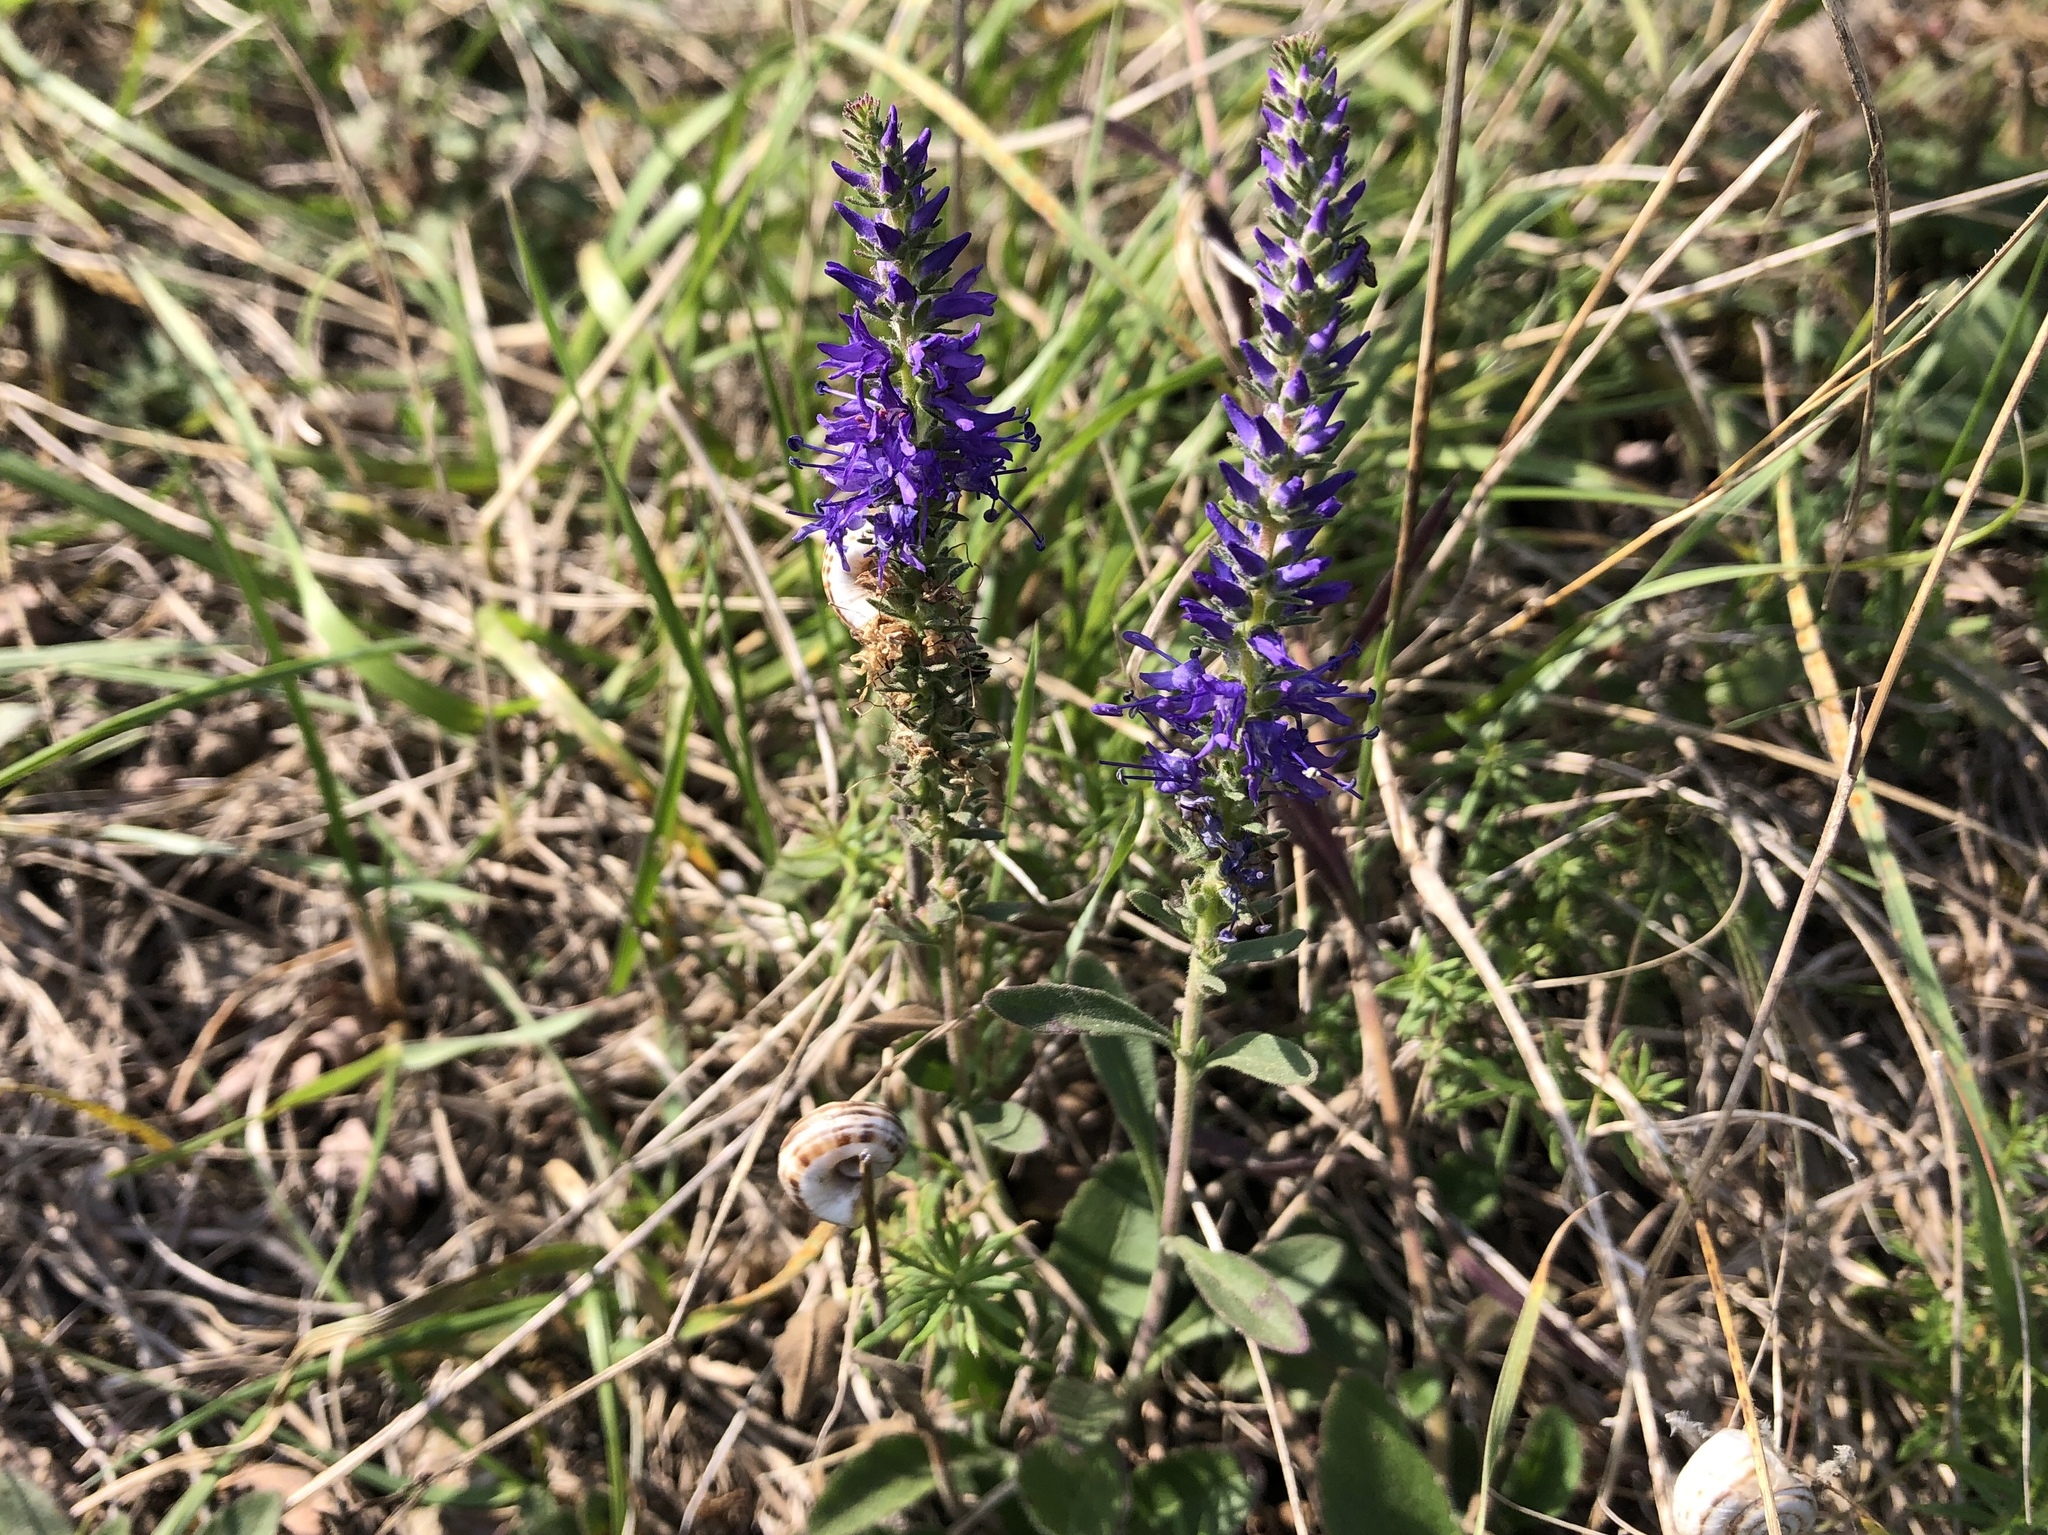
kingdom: Plantae
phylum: Tracheophyta
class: Magnoliopsida
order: Lamiales
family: Plantaginaceae
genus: Veronica
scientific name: Veronica spicata
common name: Spiked speedwell
